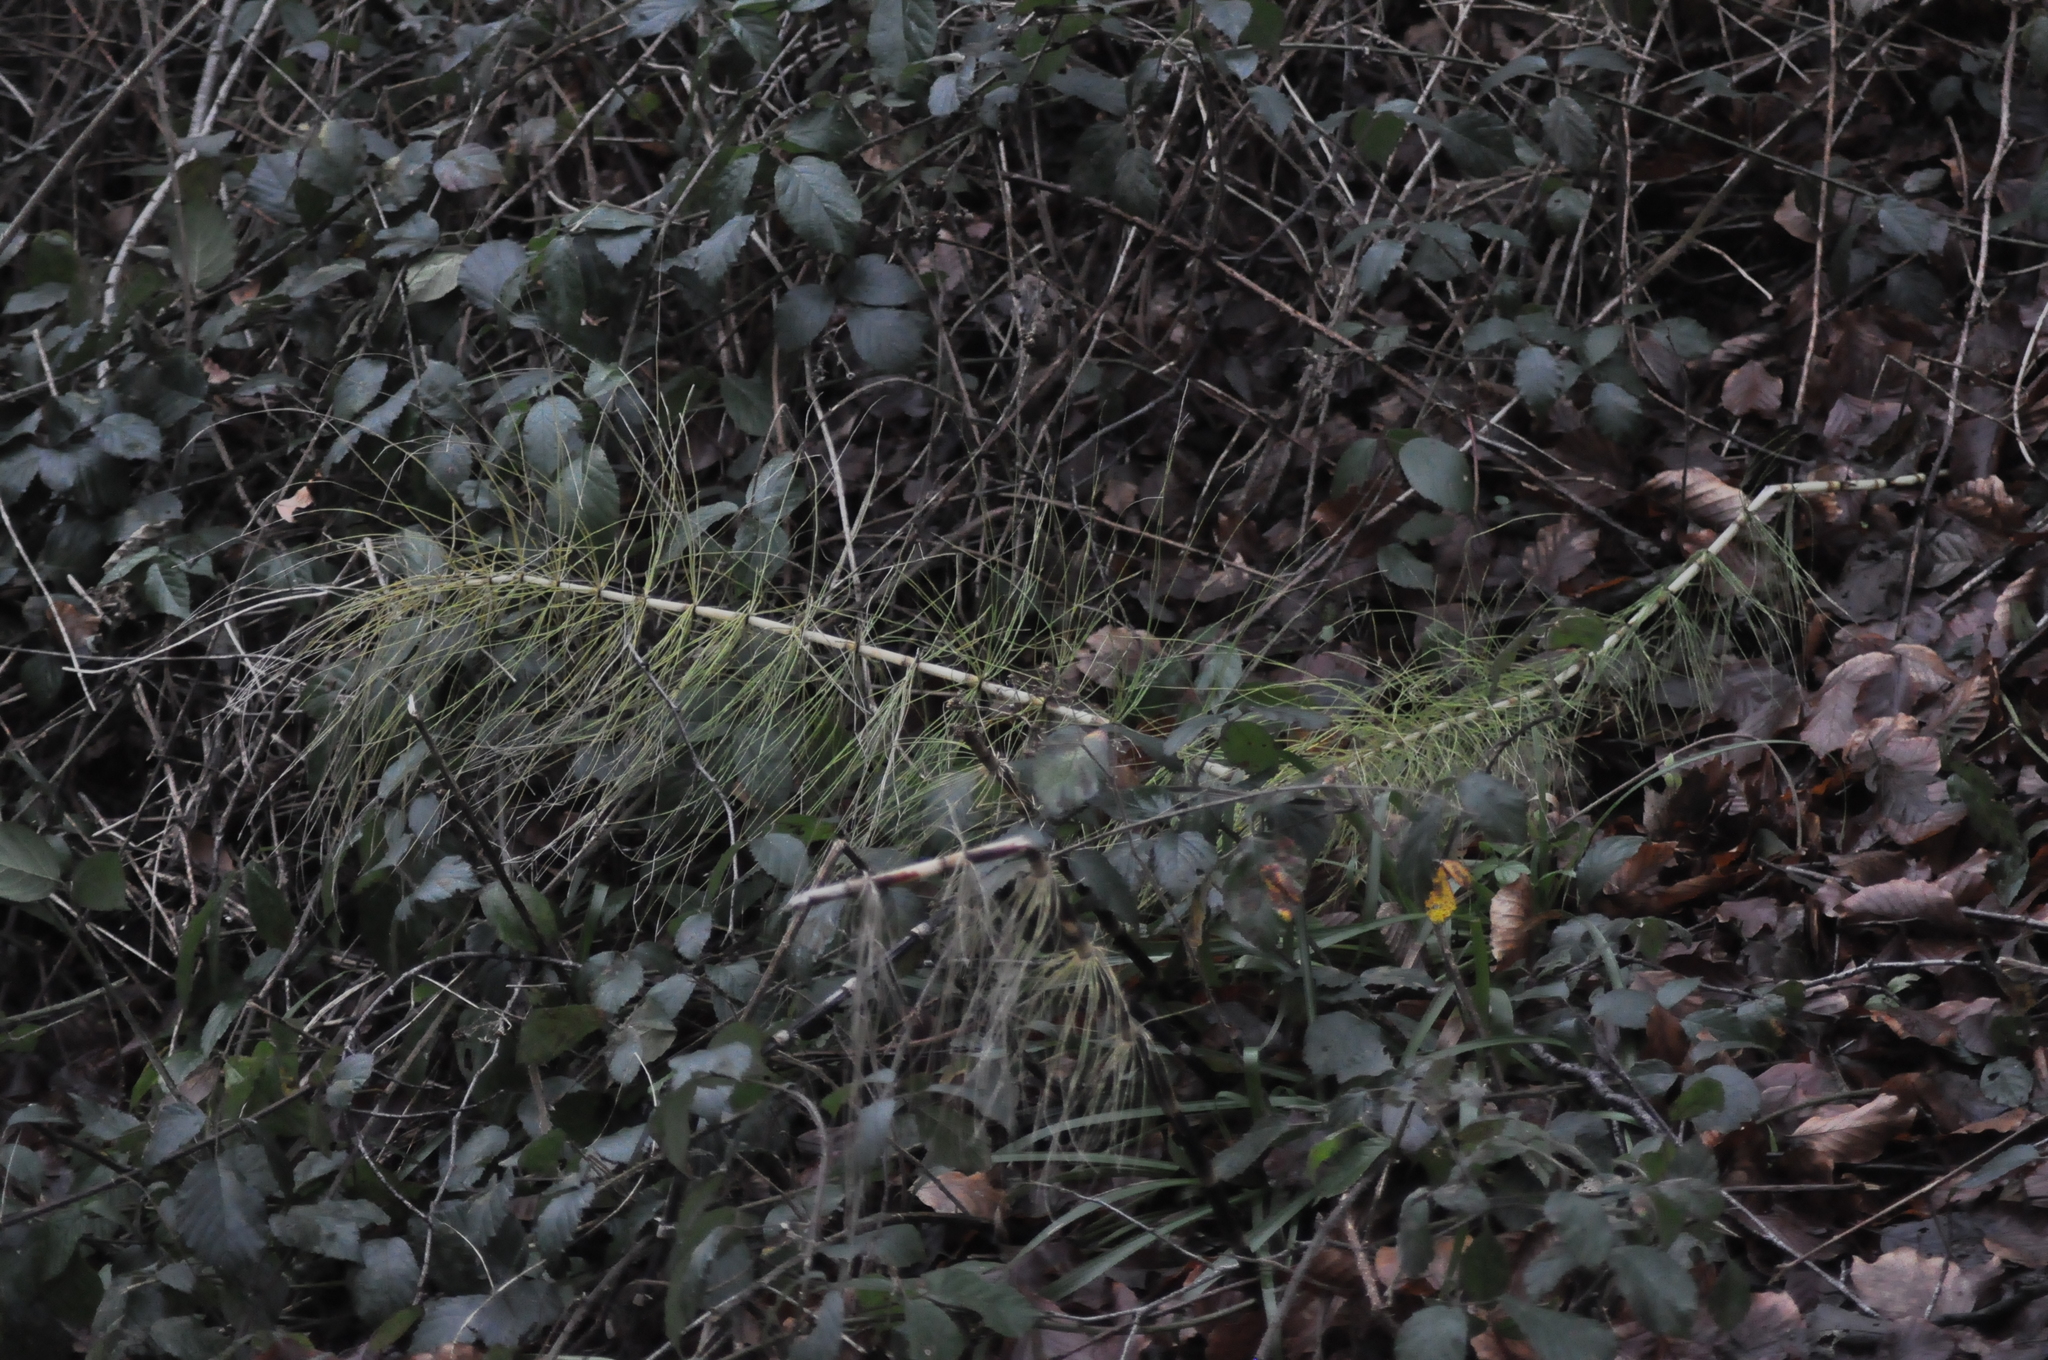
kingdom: Plantae
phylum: Tracheophyta
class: Polypodiopsida
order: Equisetales
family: Equisetaceae
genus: Equisetum
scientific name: Equisetum telmateia
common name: Great horsetail
